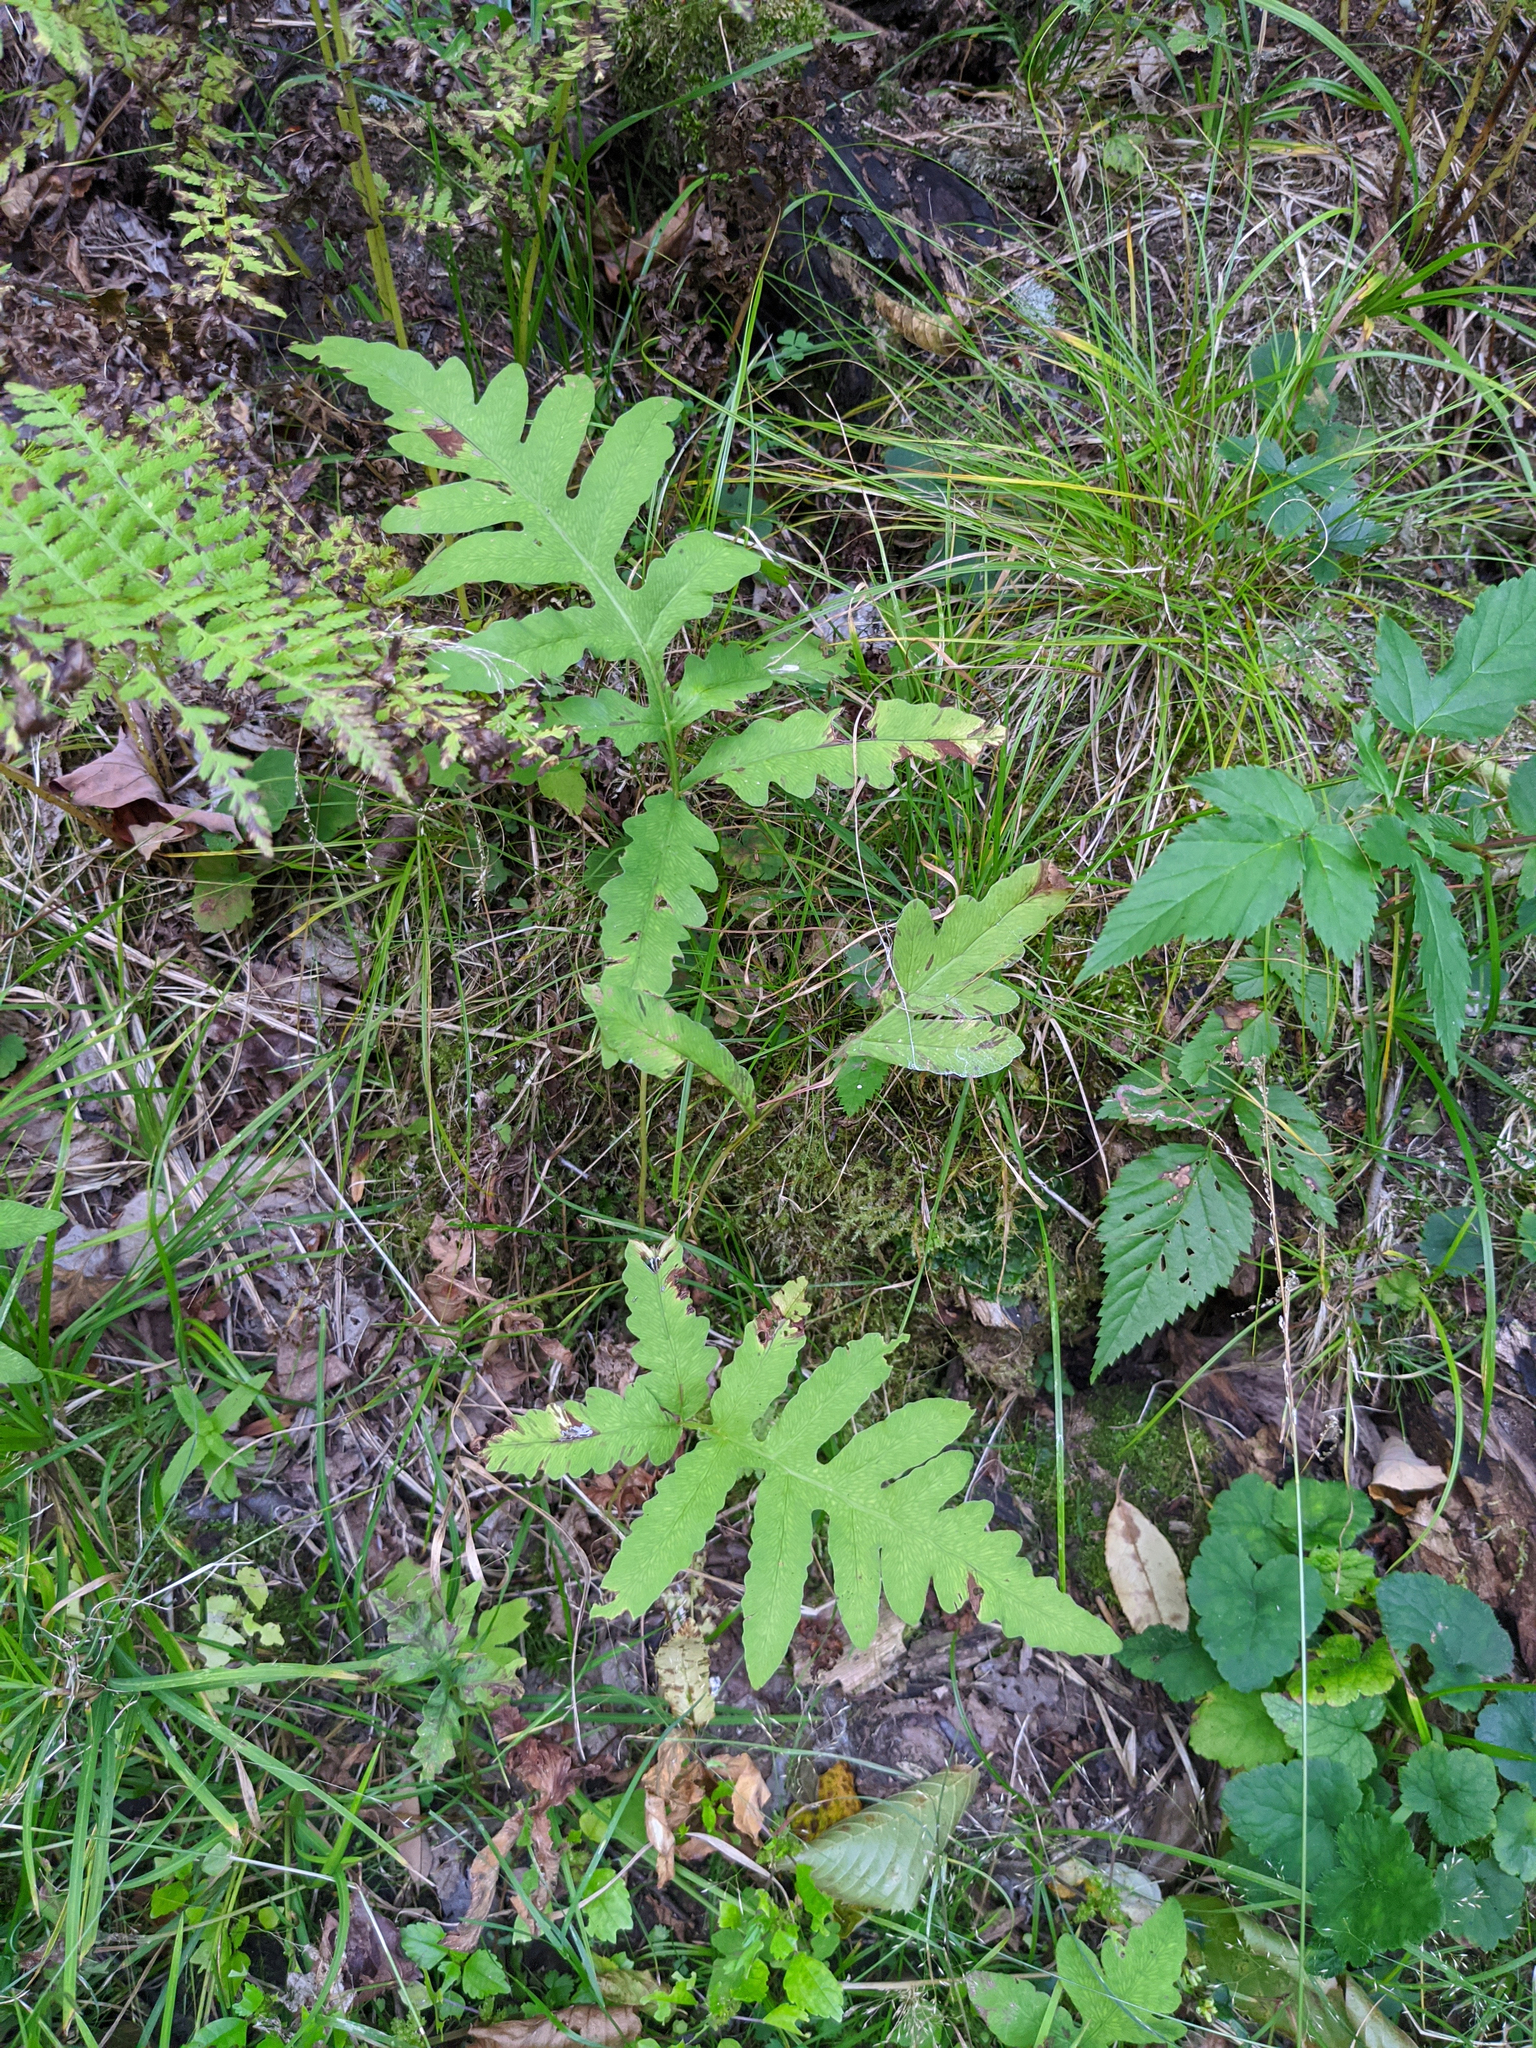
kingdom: Plantae
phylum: Tracheophyta
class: Polypodiopsida
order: Polypodiales
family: Onocleaceae
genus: Onoclea
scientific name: Onoclea sensibilis
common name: Sensitive fern
